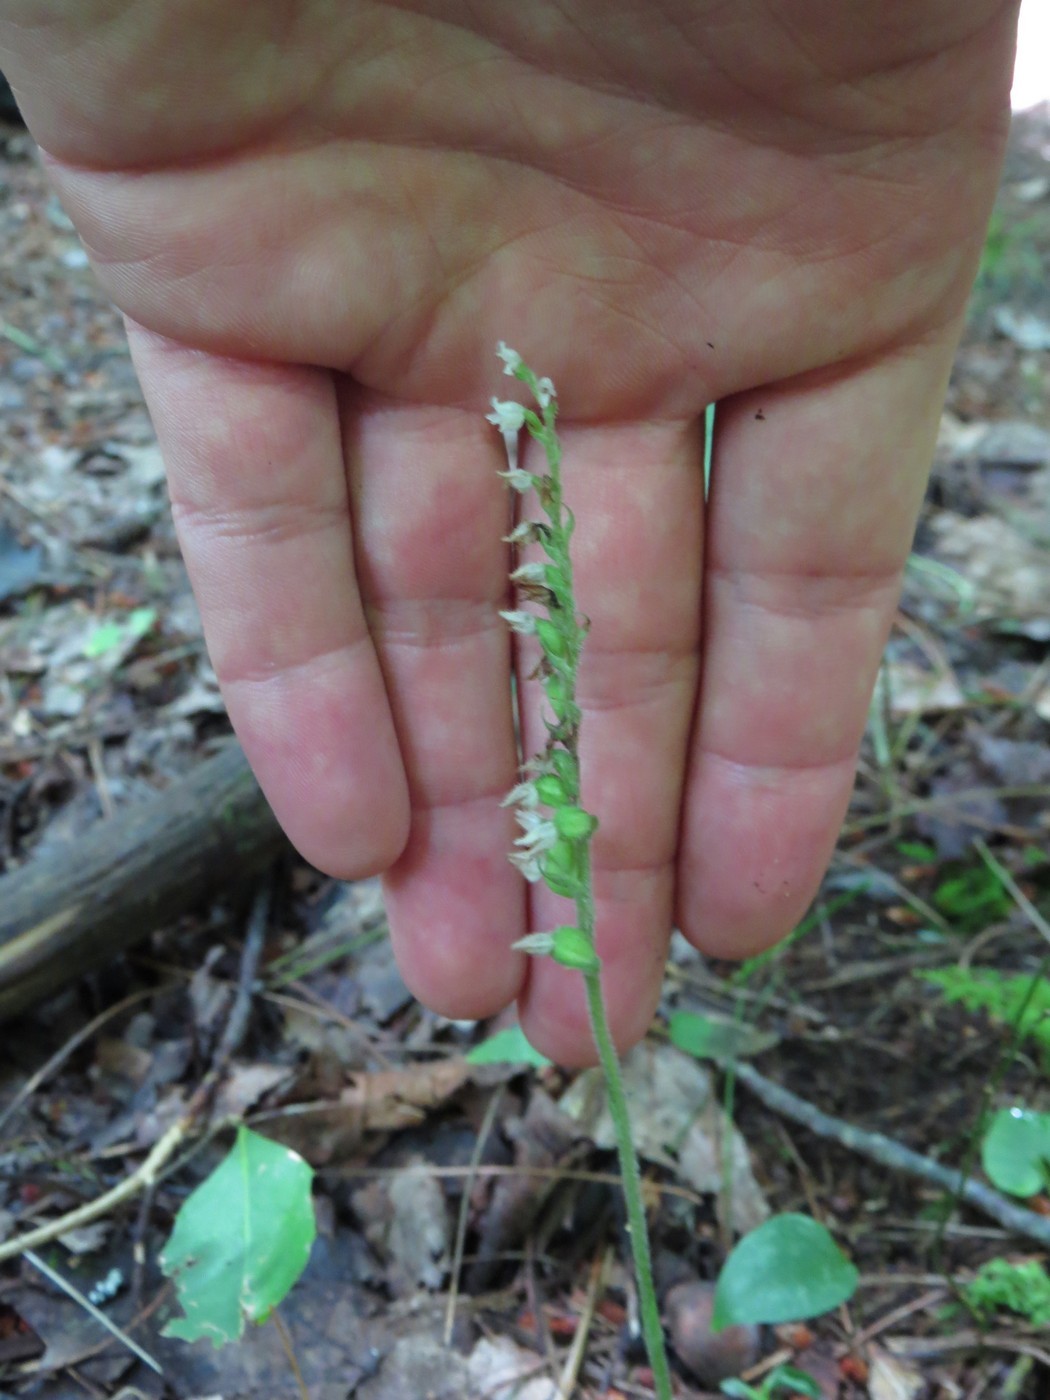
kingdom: Plantae
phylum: Tracheophyta
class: Liliopsida
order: Asparagales
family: Orchidaceae
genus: Goodyera
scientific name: Goodyera repens
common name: Creeping lady's-tresses
